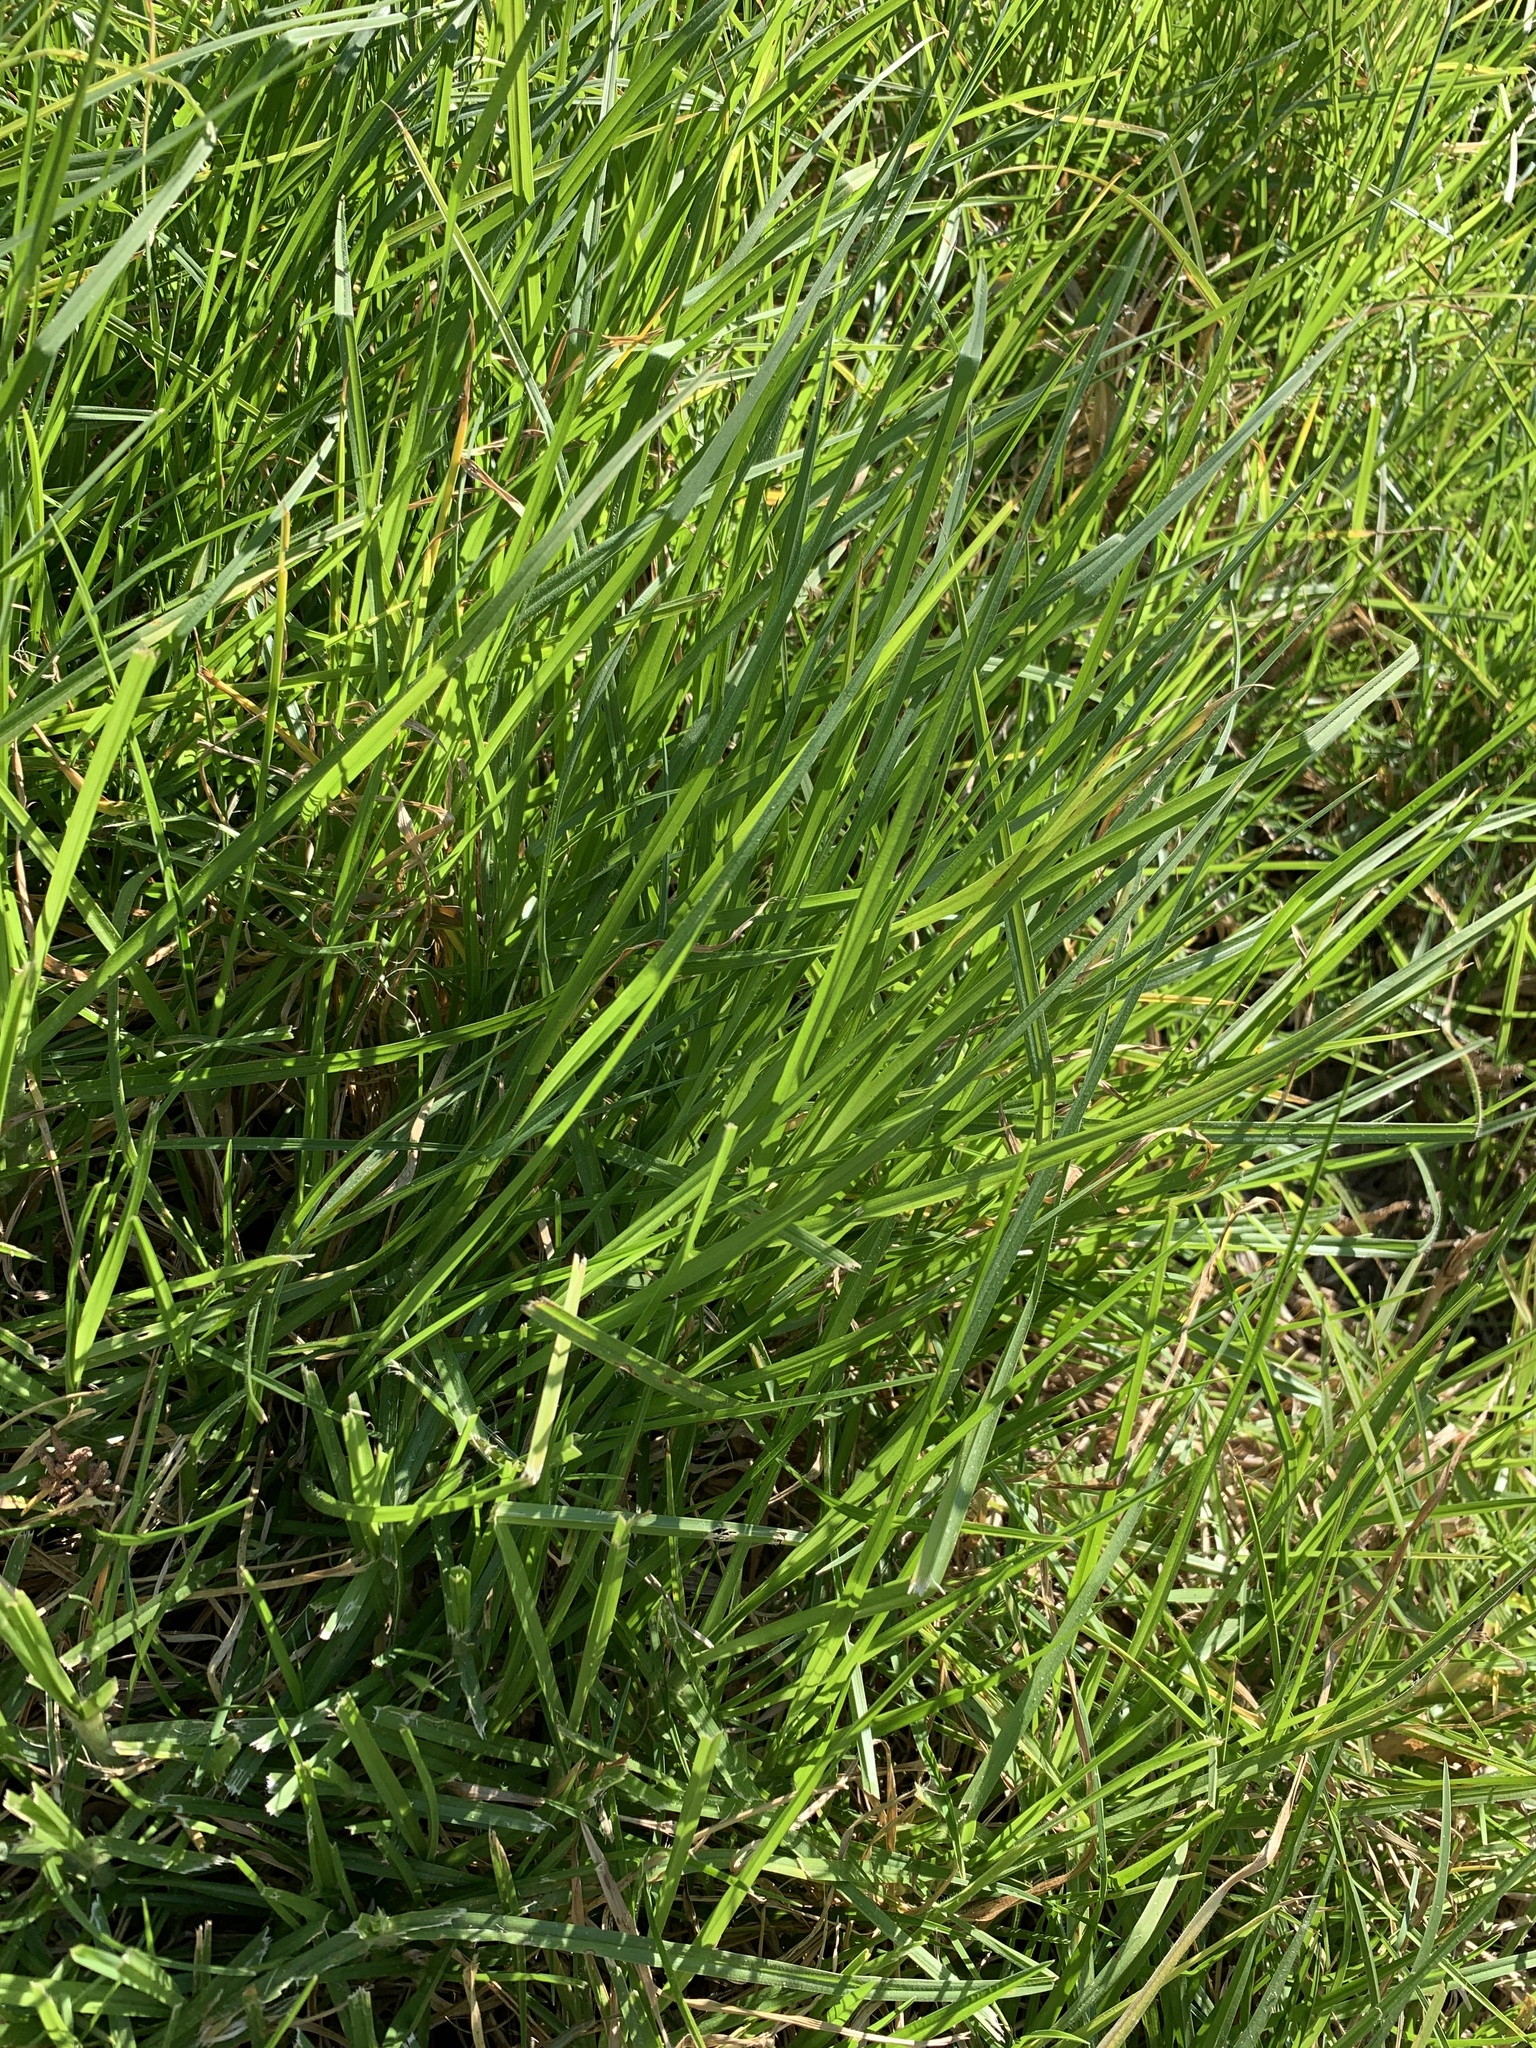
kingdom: Plantae
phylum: Tracheophyta
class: Liliopsida
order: Poales
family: Poaceae
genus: Cenchrus
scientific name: Cenchrus clandestinus
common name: Kikuyugrass
